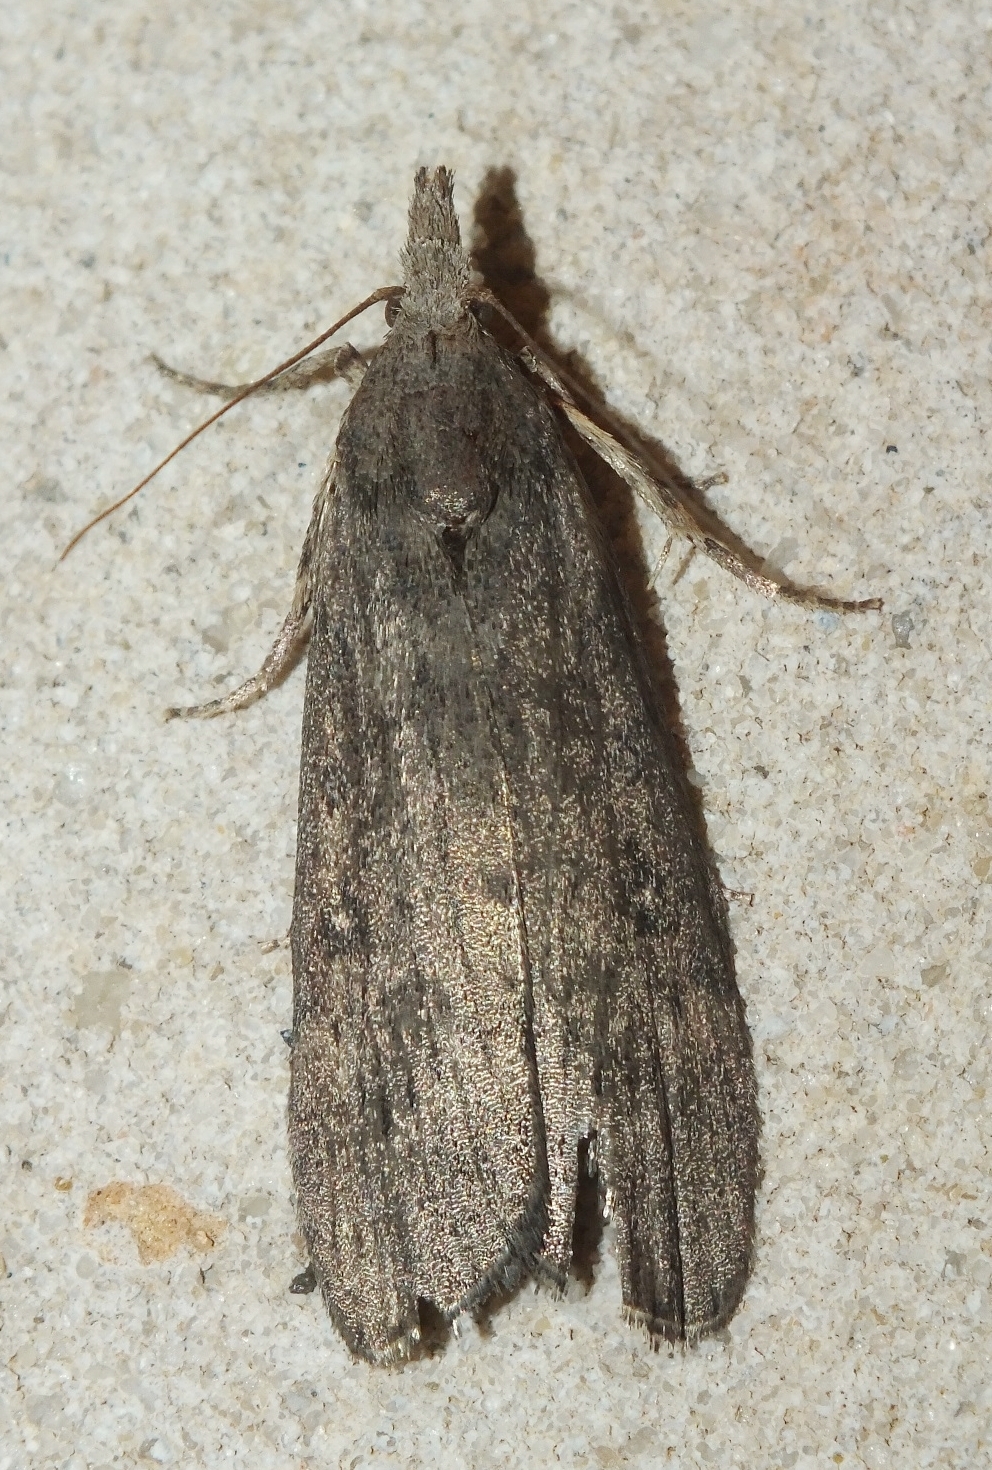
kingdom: Animalia
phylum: Arthropoda
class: Insecta
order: Lepidoptera
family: Pyralidae
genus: Lamoria
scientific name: Lamoria anella
